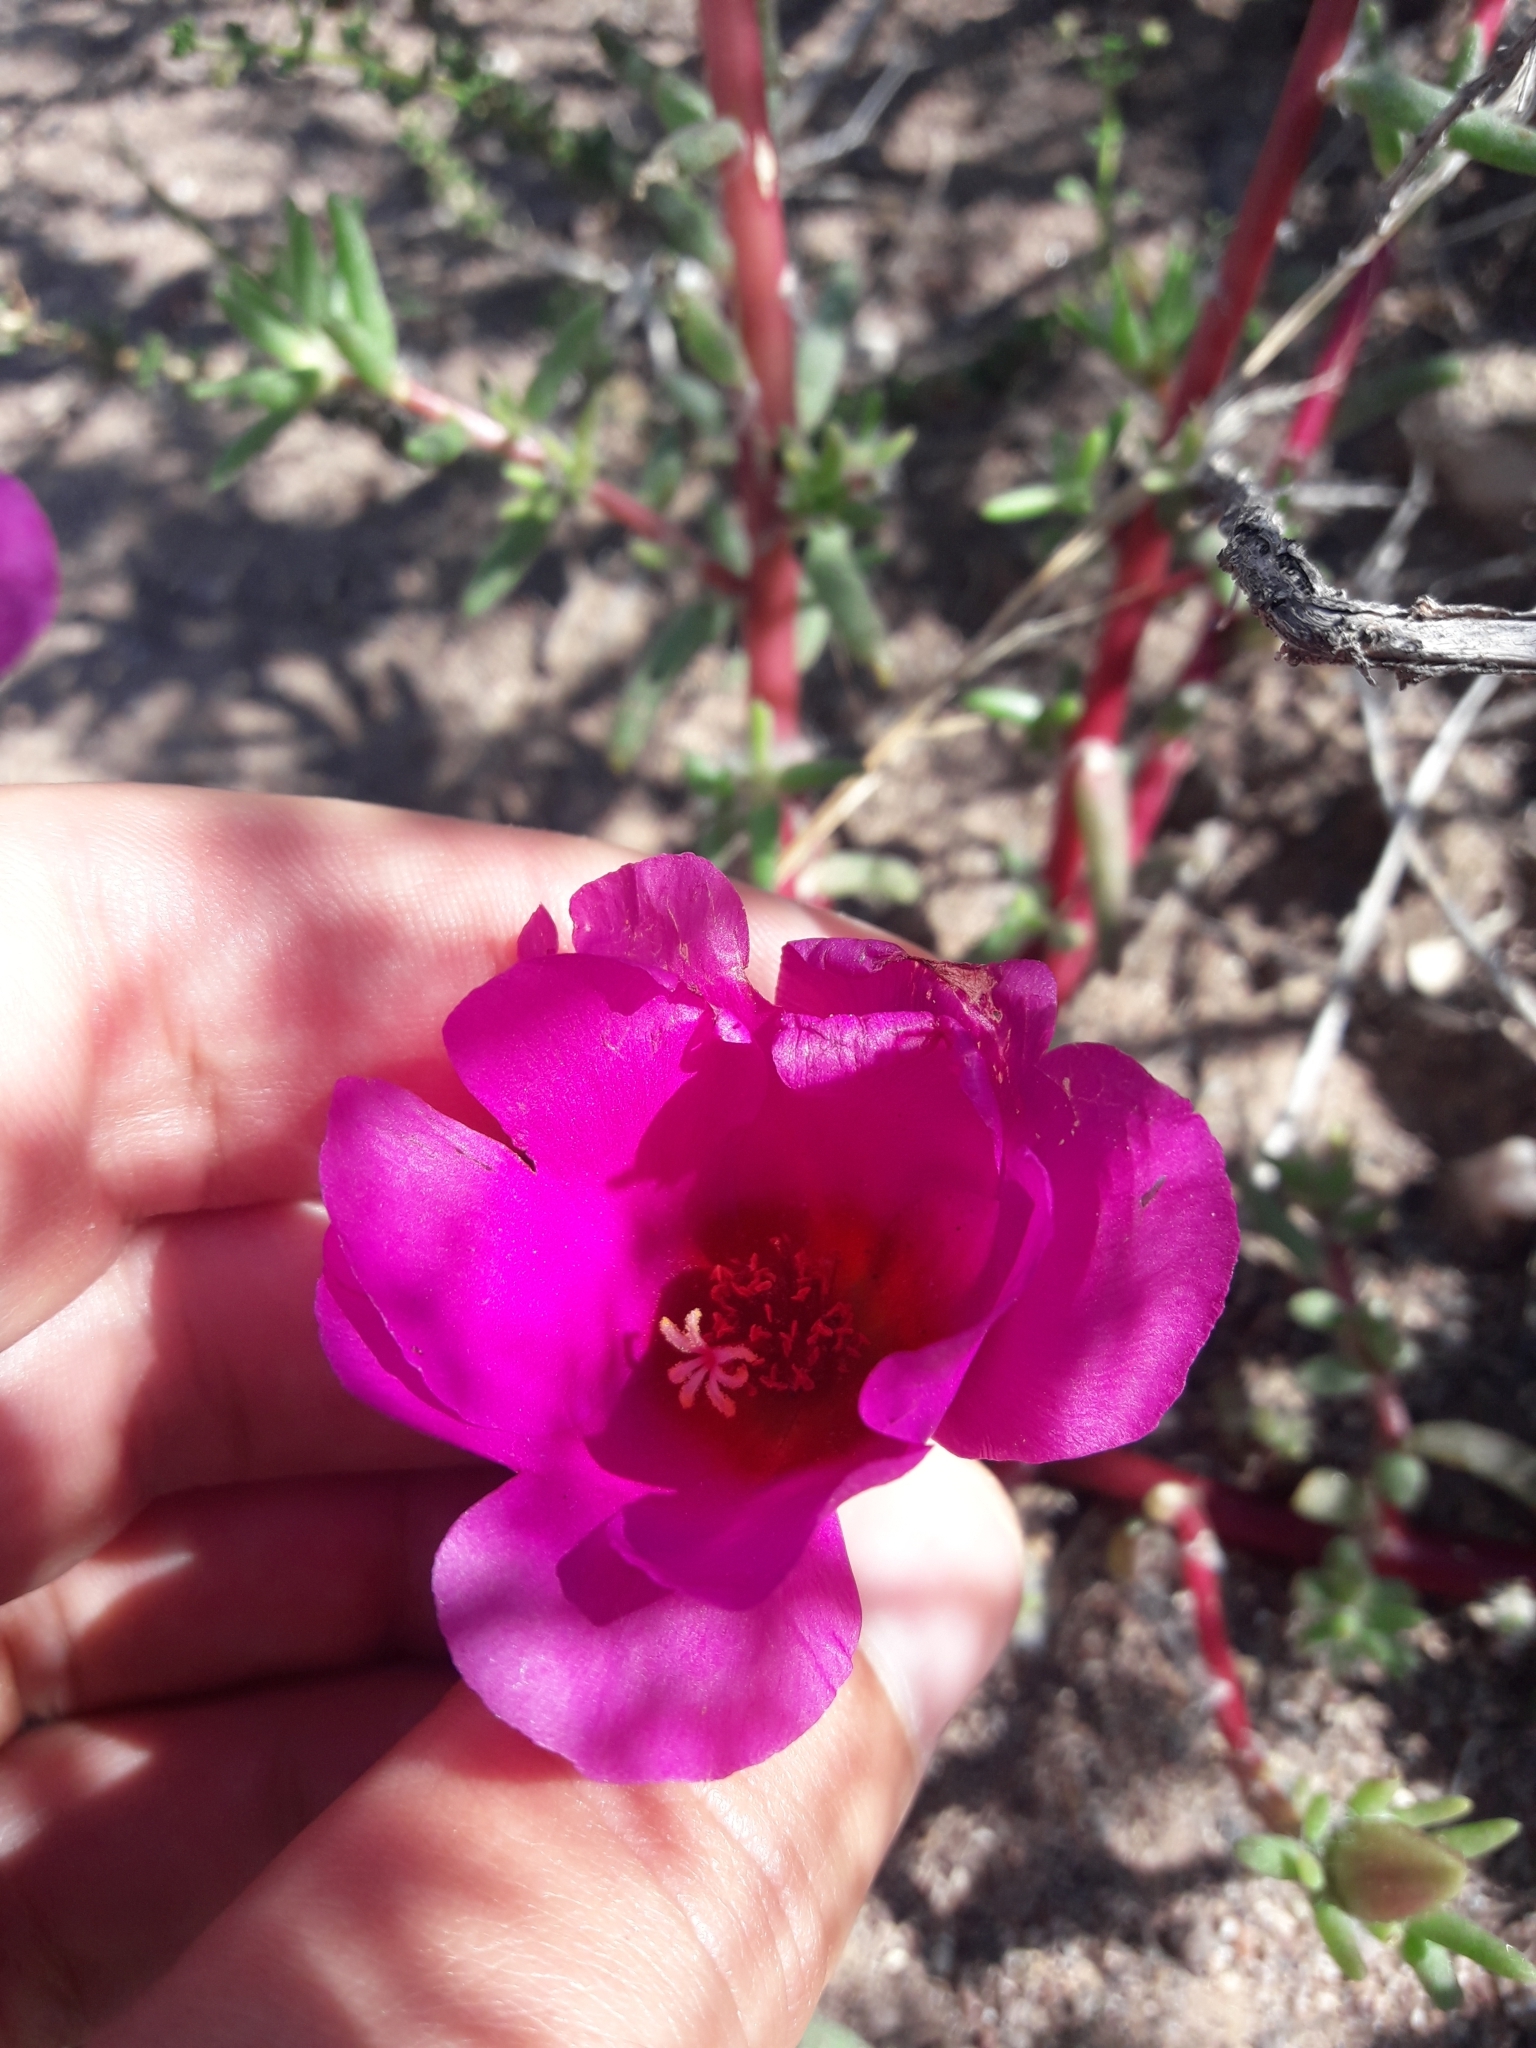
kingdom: Plantae
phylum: Tracheophyta
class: Magnoliopsida
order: Caryophyllales
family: Portulacaceae
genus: Portulaca
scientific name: Portulaca grandiflora
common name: Moss-rose
